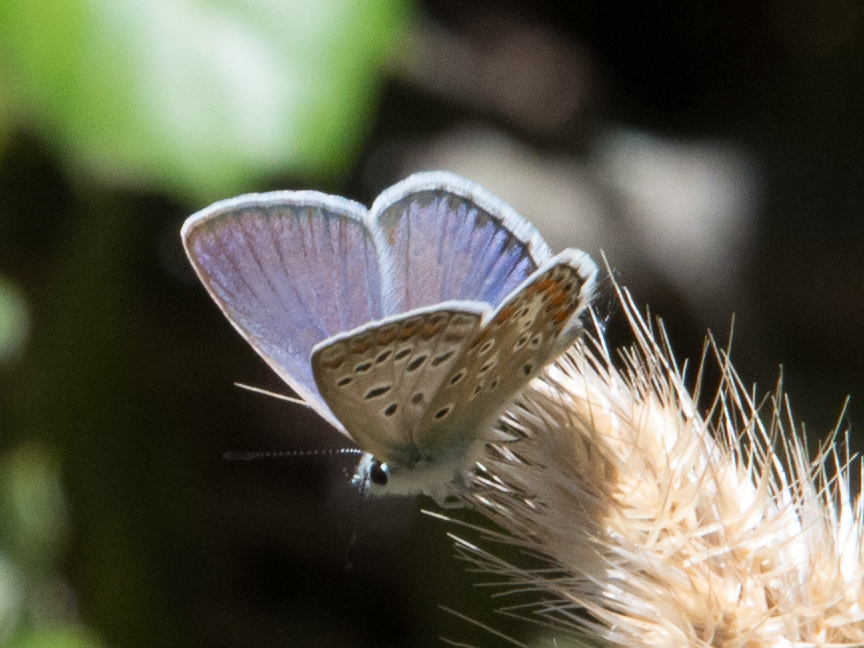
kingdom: Animalia
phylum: Arthropoda
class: Insecta
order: Lepidoptera
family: Lycaenidae
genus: Polyommatus
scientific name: Polyommatus celina
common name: Austaut's blue
